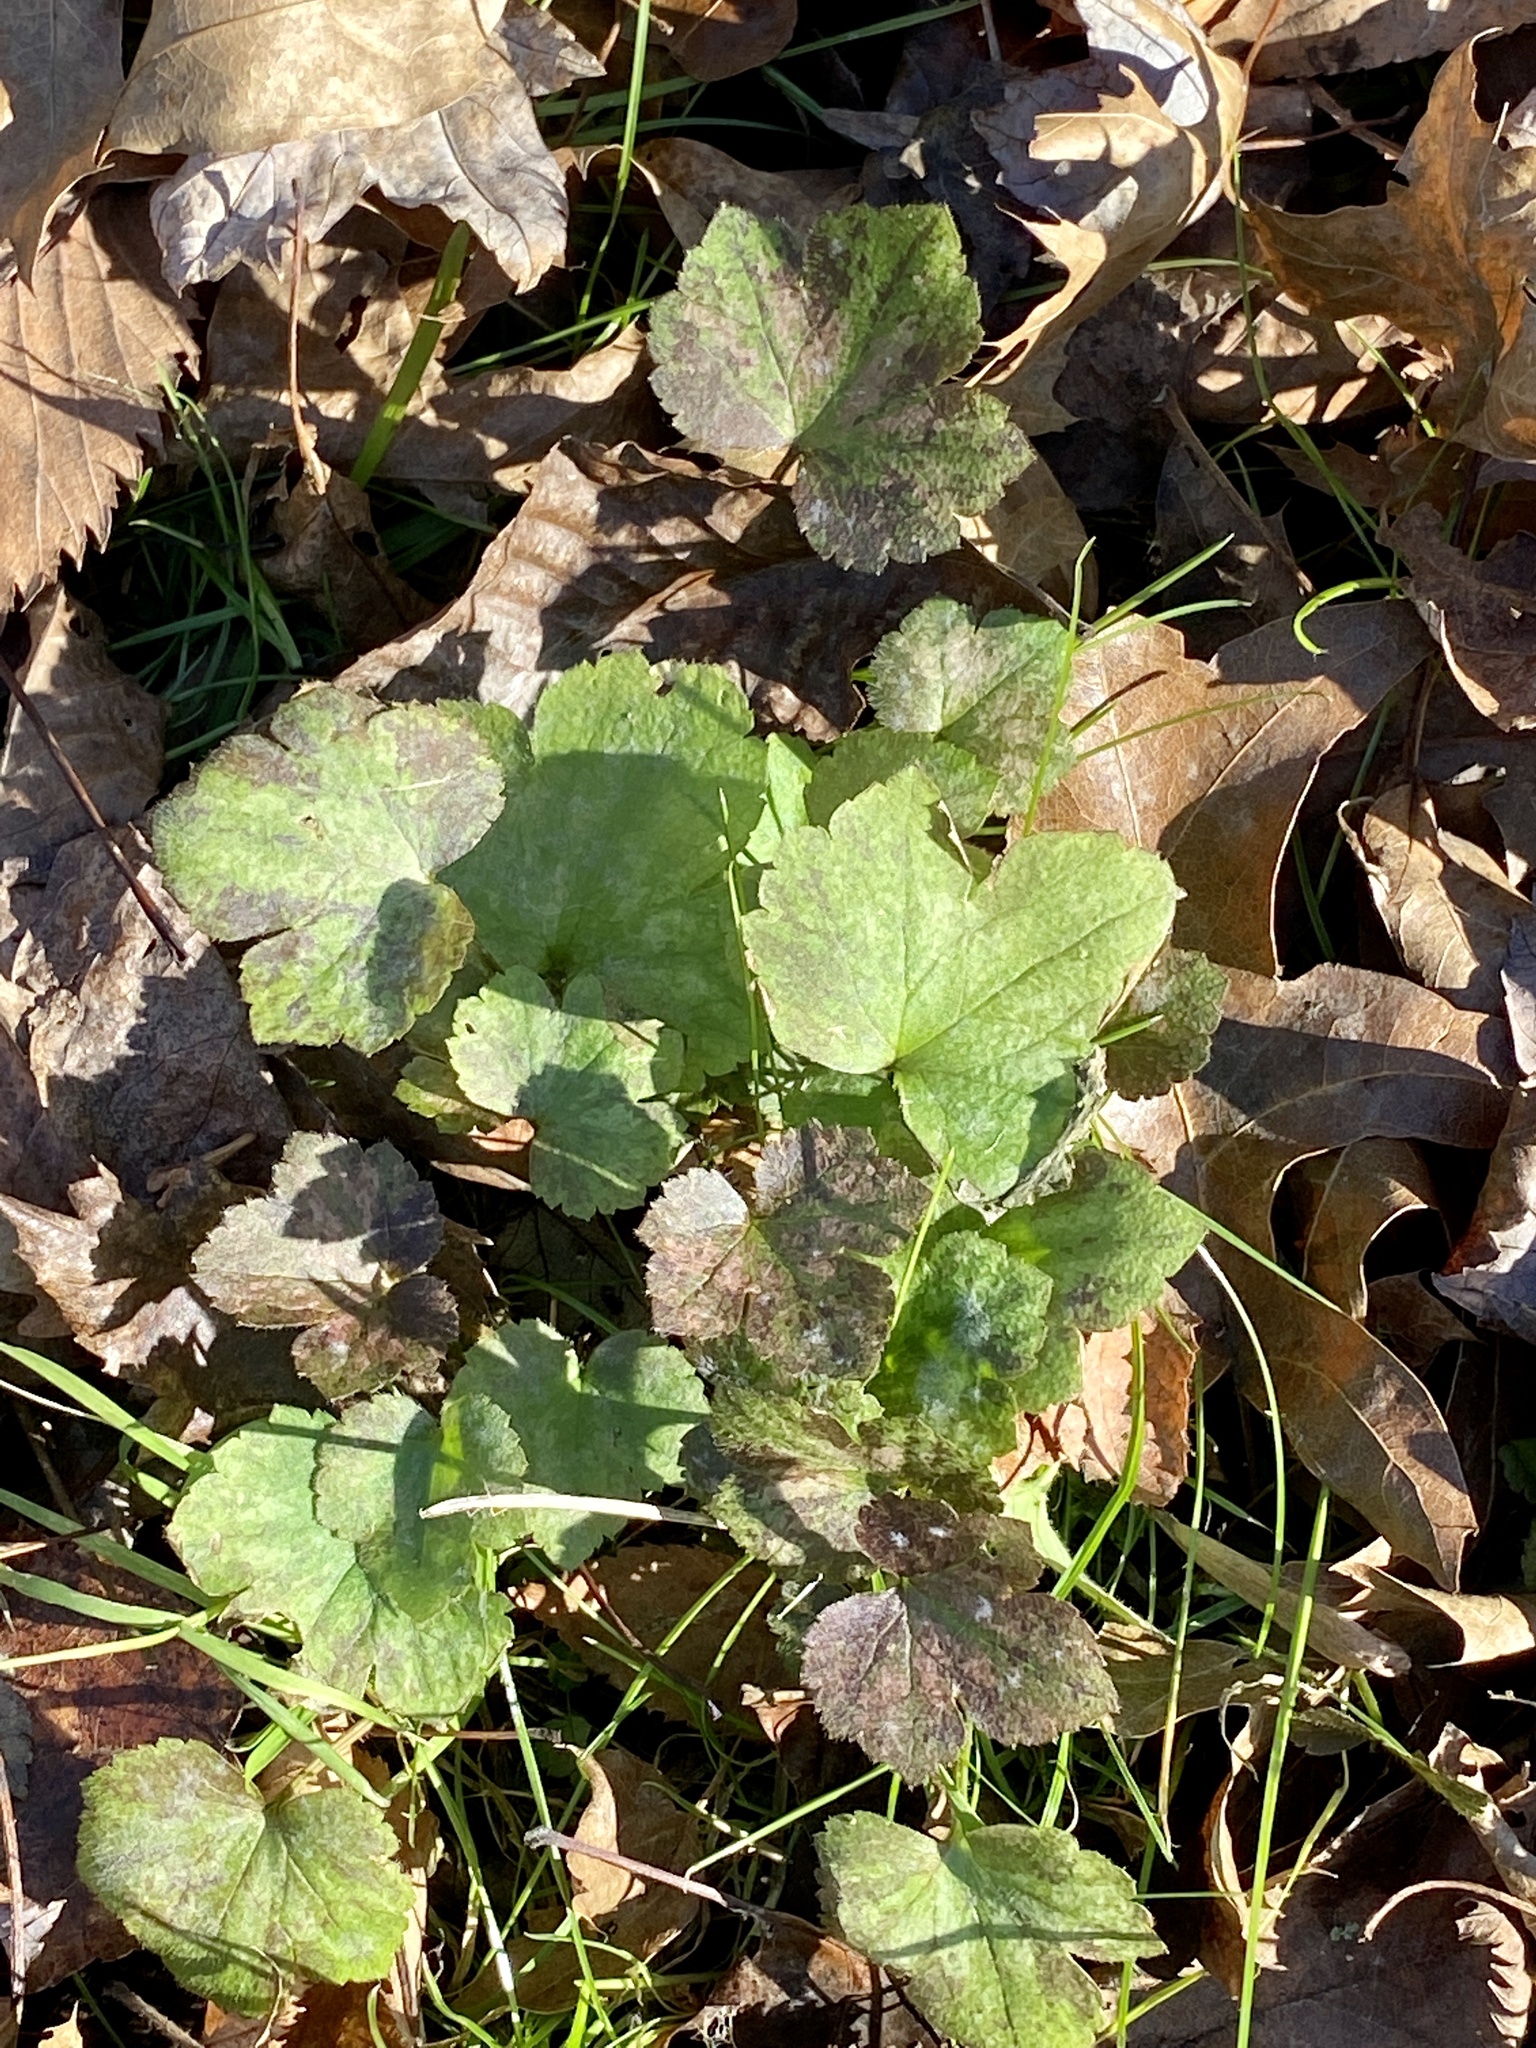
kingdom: Plantae
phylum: Tracheophyta
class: Magnoliopsida
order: Ranunculales
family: Ranunculaceae
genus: Ranunculus
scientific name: Ranunculus recurvatus
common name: Blisterwort
